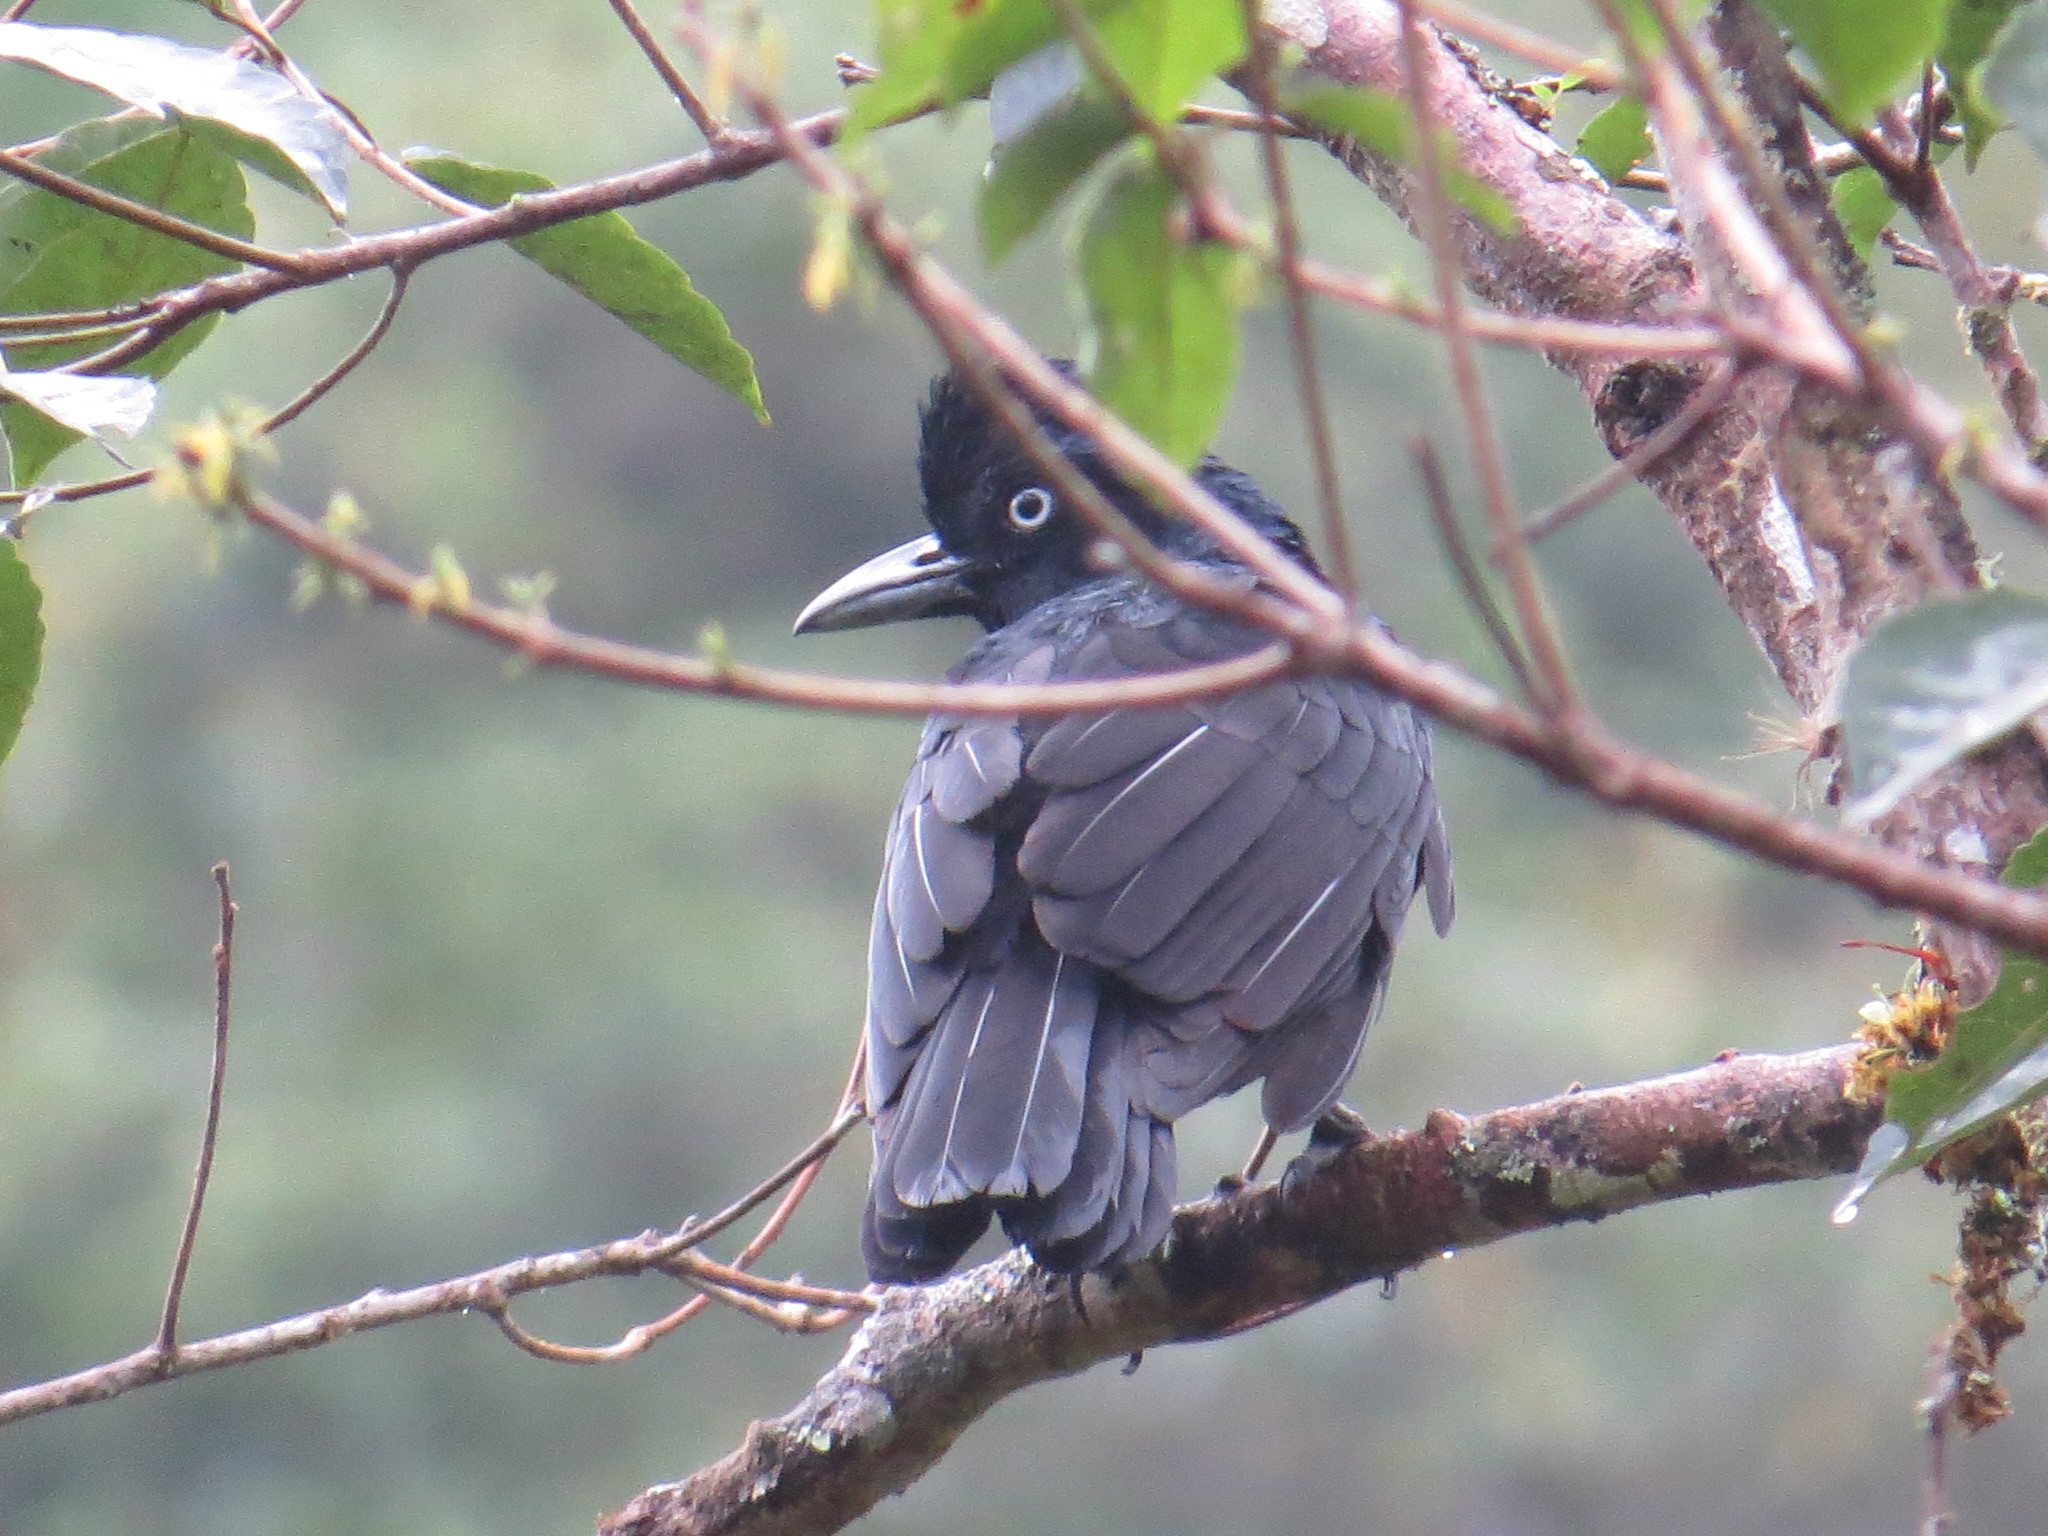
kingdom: Animalia
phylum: Chordata
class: Aves
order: Passeriformes
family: Cotingidae
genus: Cephalopterus
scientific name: Cephalopterus ornatus
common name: Amazonian umbrellabird
